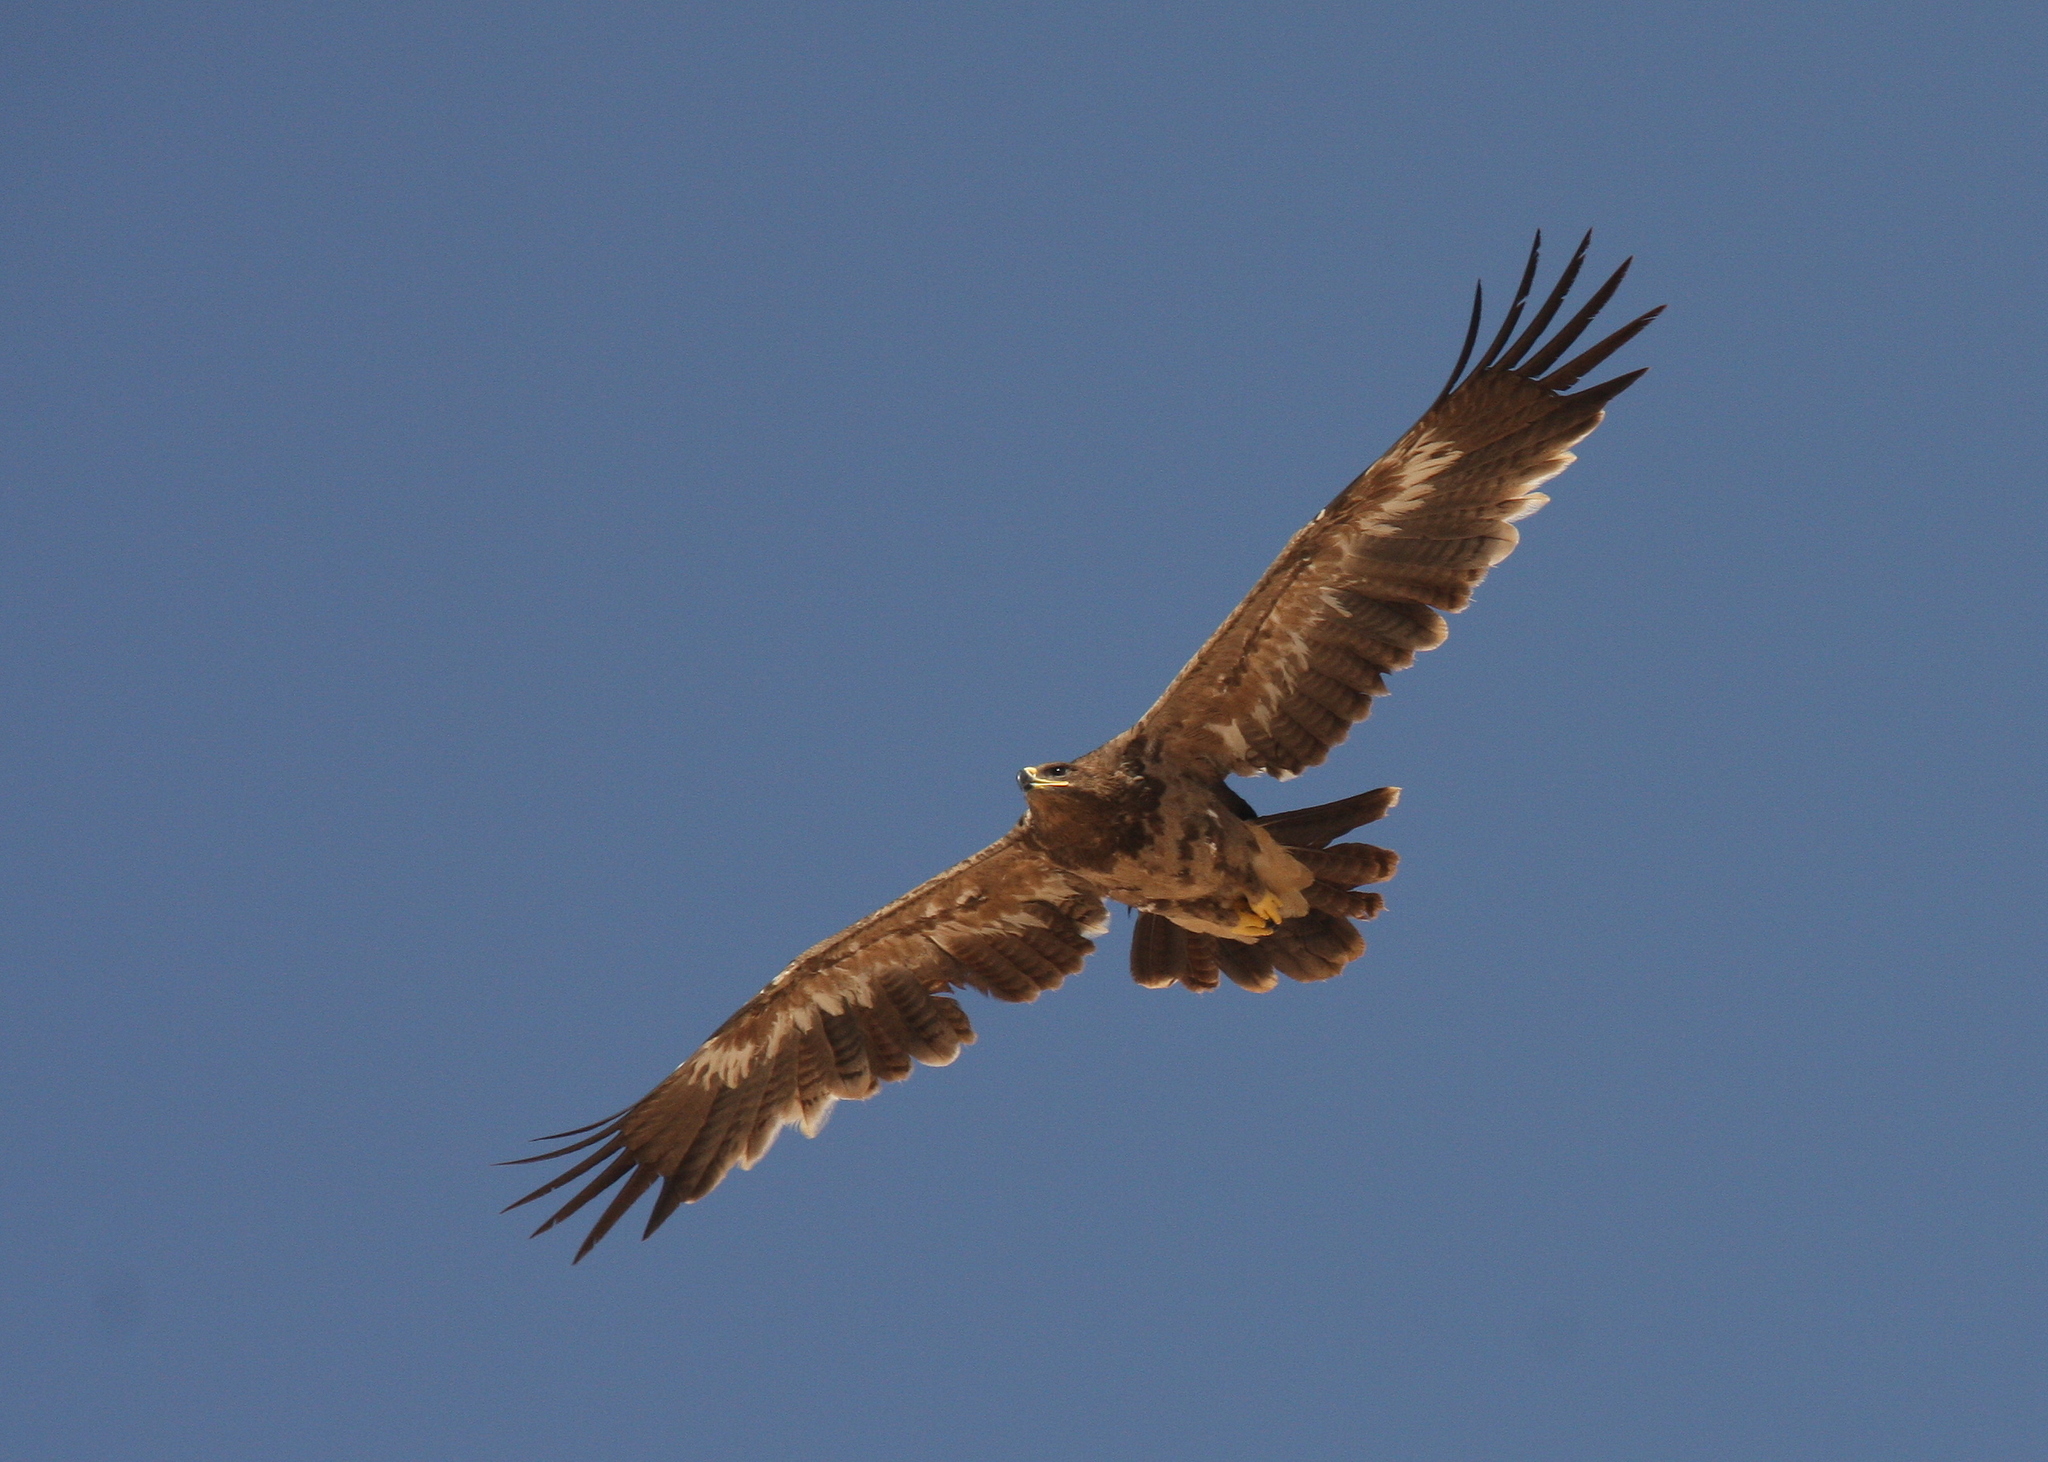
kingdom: Animalia
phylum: Chordata
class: Aves
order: Accipitriformes
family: Accipitridae
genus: Aquila
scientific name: Aquila nipalensis
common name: Steppe eagle
